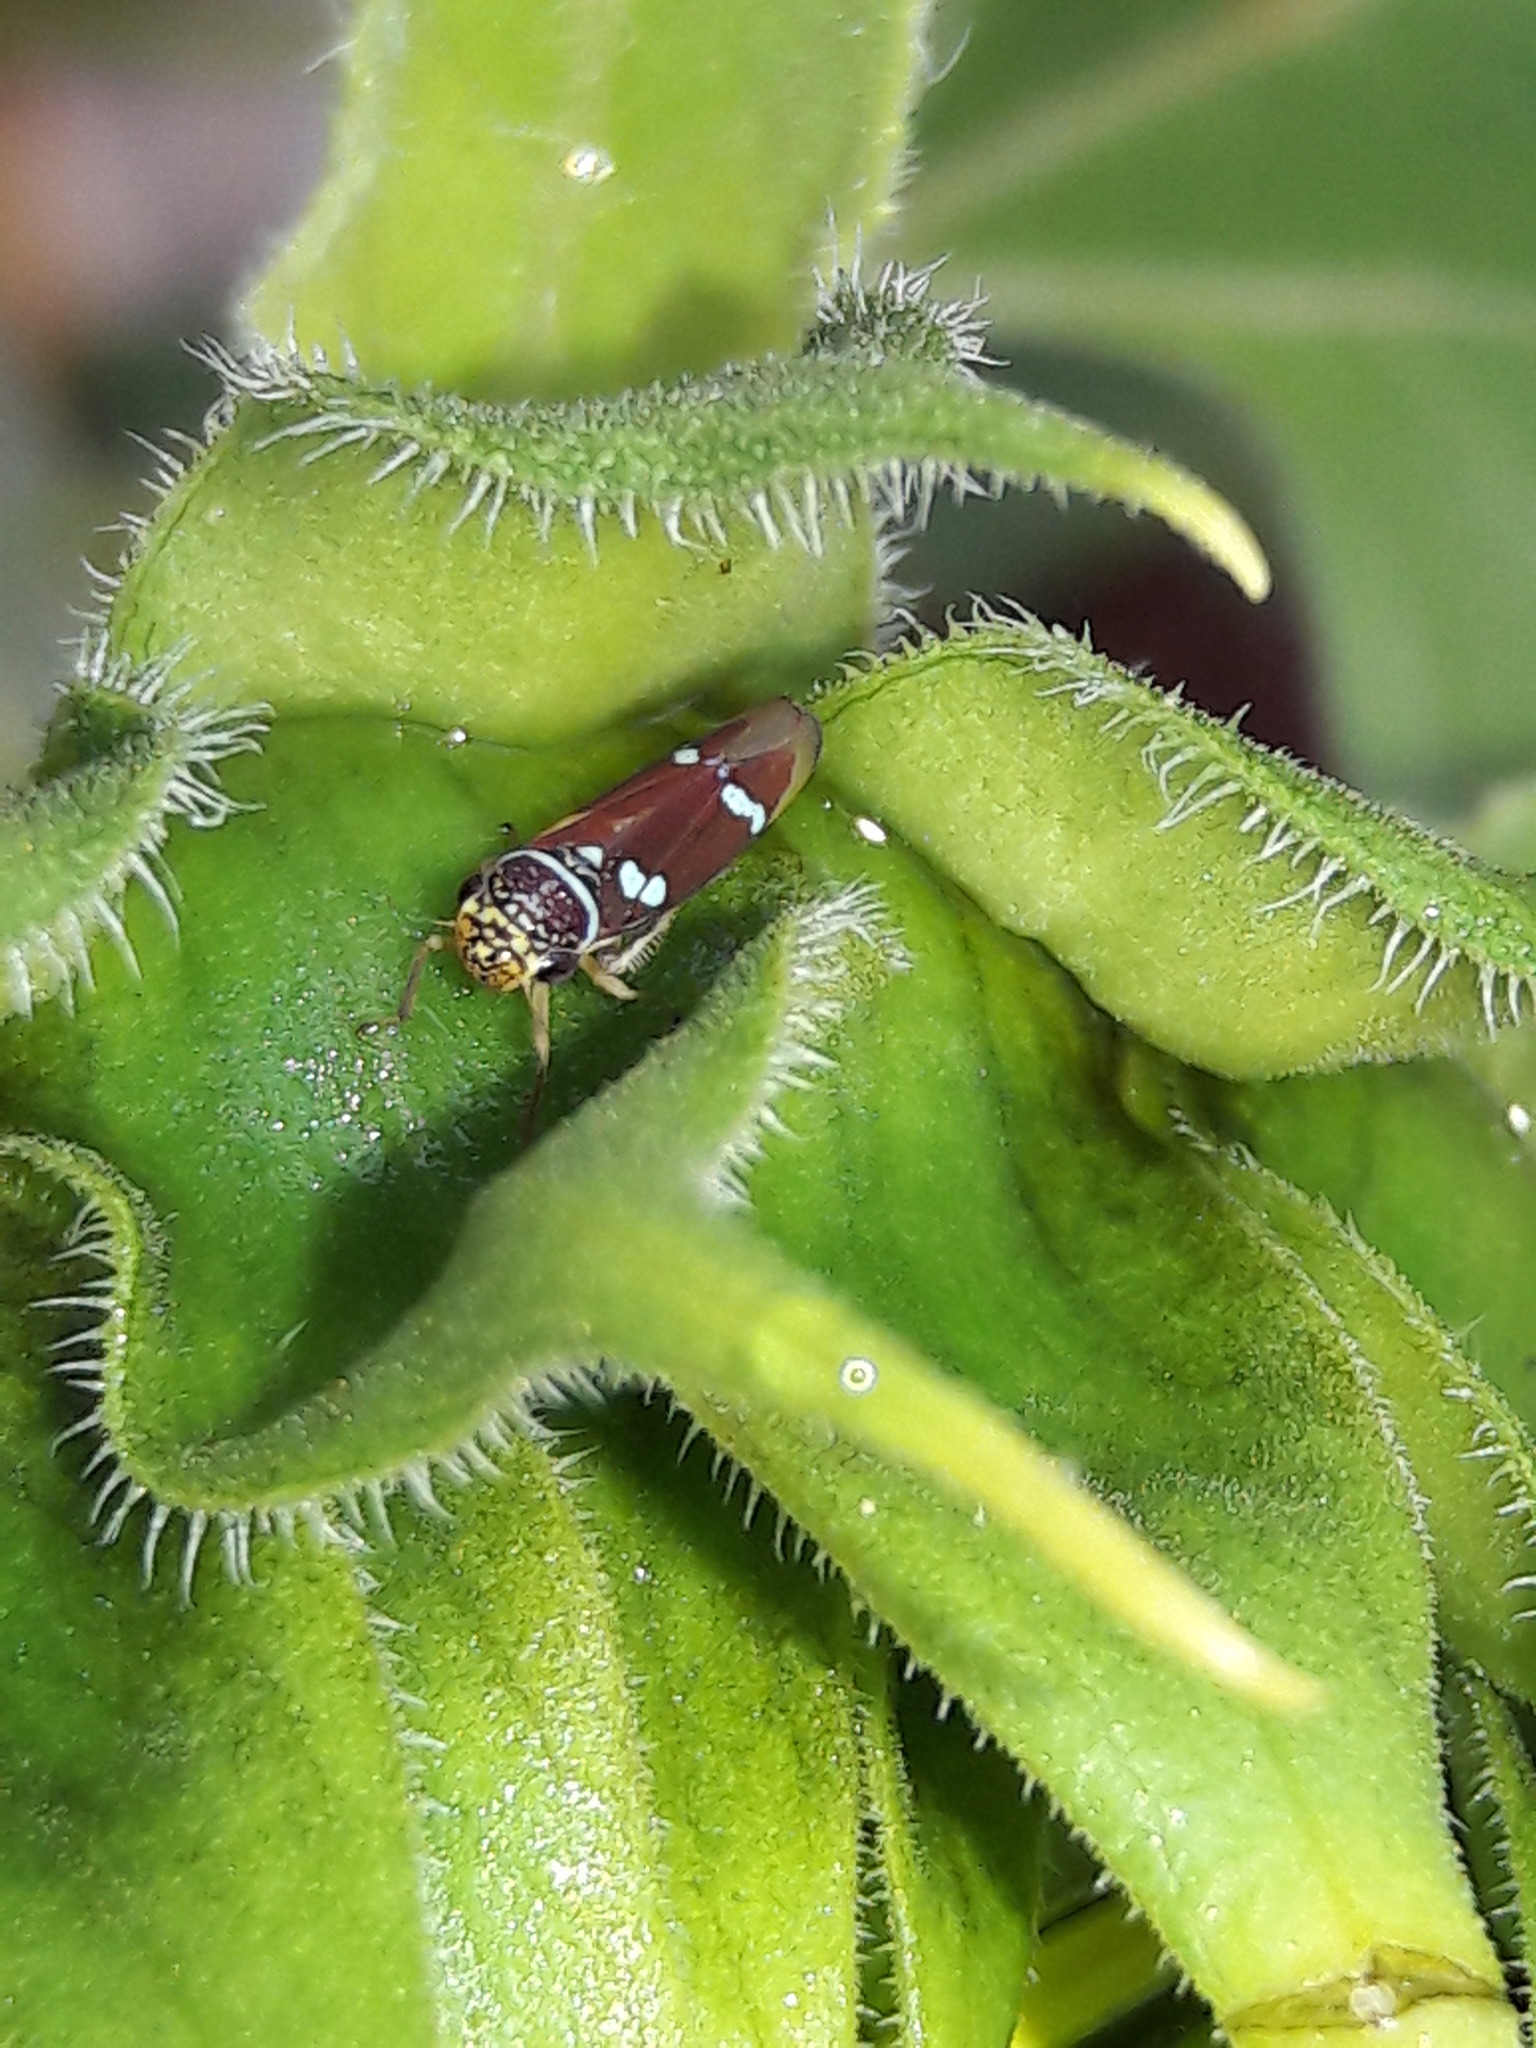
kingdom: Animalia
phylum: Arthropoda
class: Insecta
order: Hemiptera
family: Cicadellidae
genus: Macugonalia
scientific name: Macugonalia leucomelas
